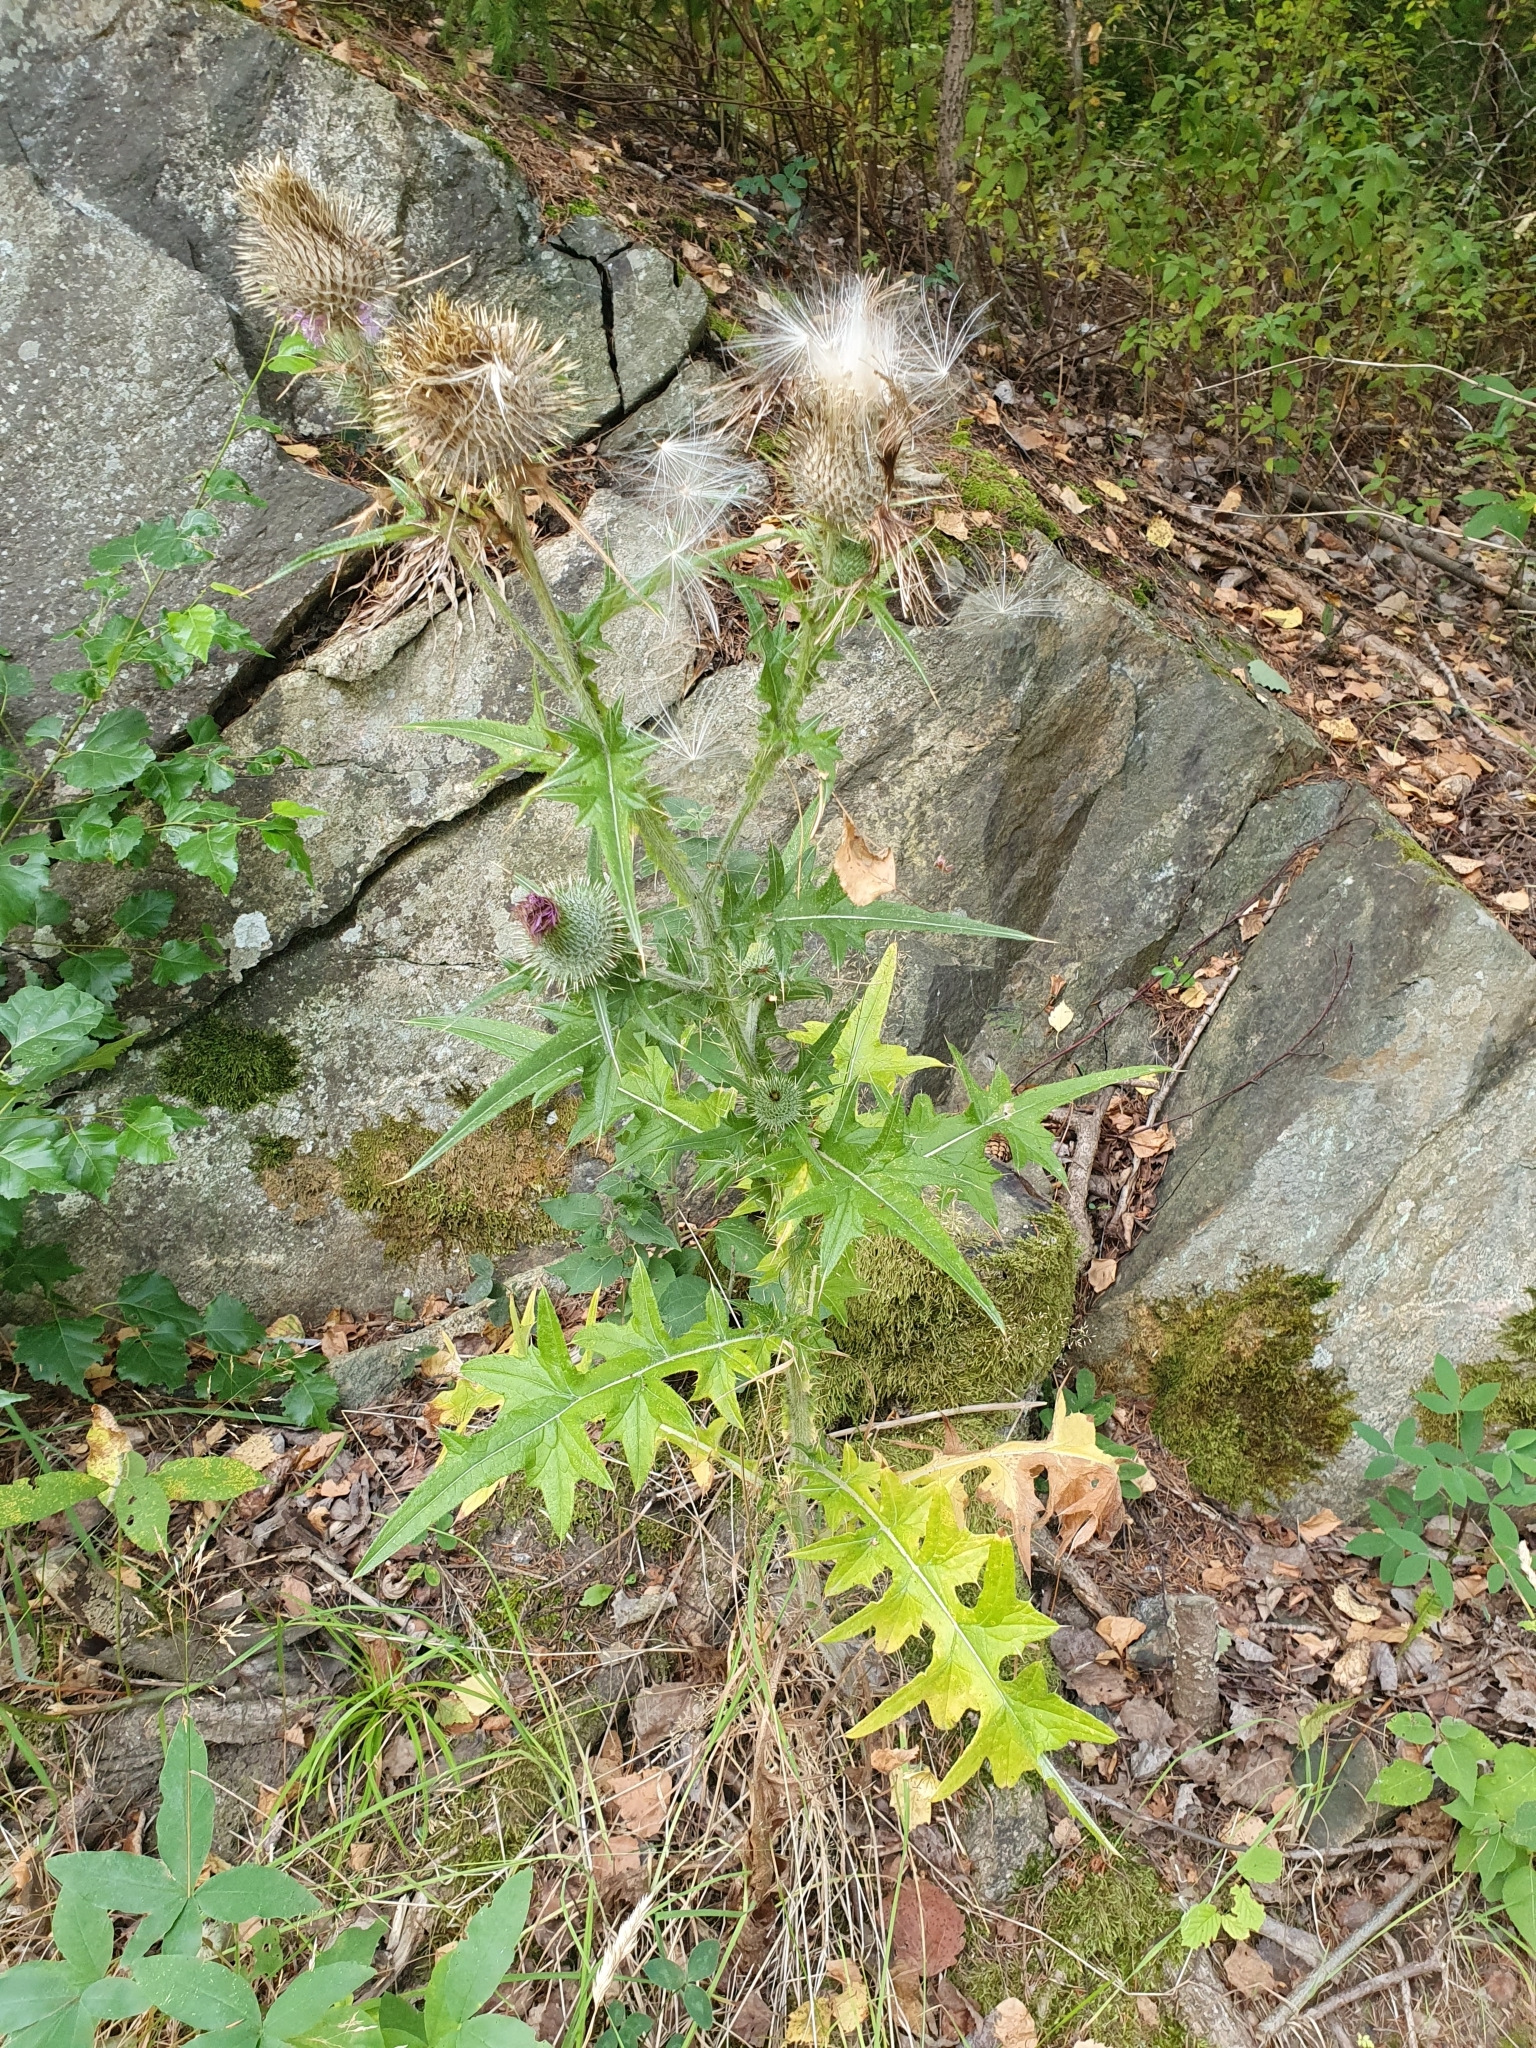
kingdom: Plantae
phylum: Tracheophyta
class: Magnoliopsida
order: Asterales
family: Asteraceae
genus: Cirsium
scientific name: Cirsium vulgare
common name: Bull thistle
